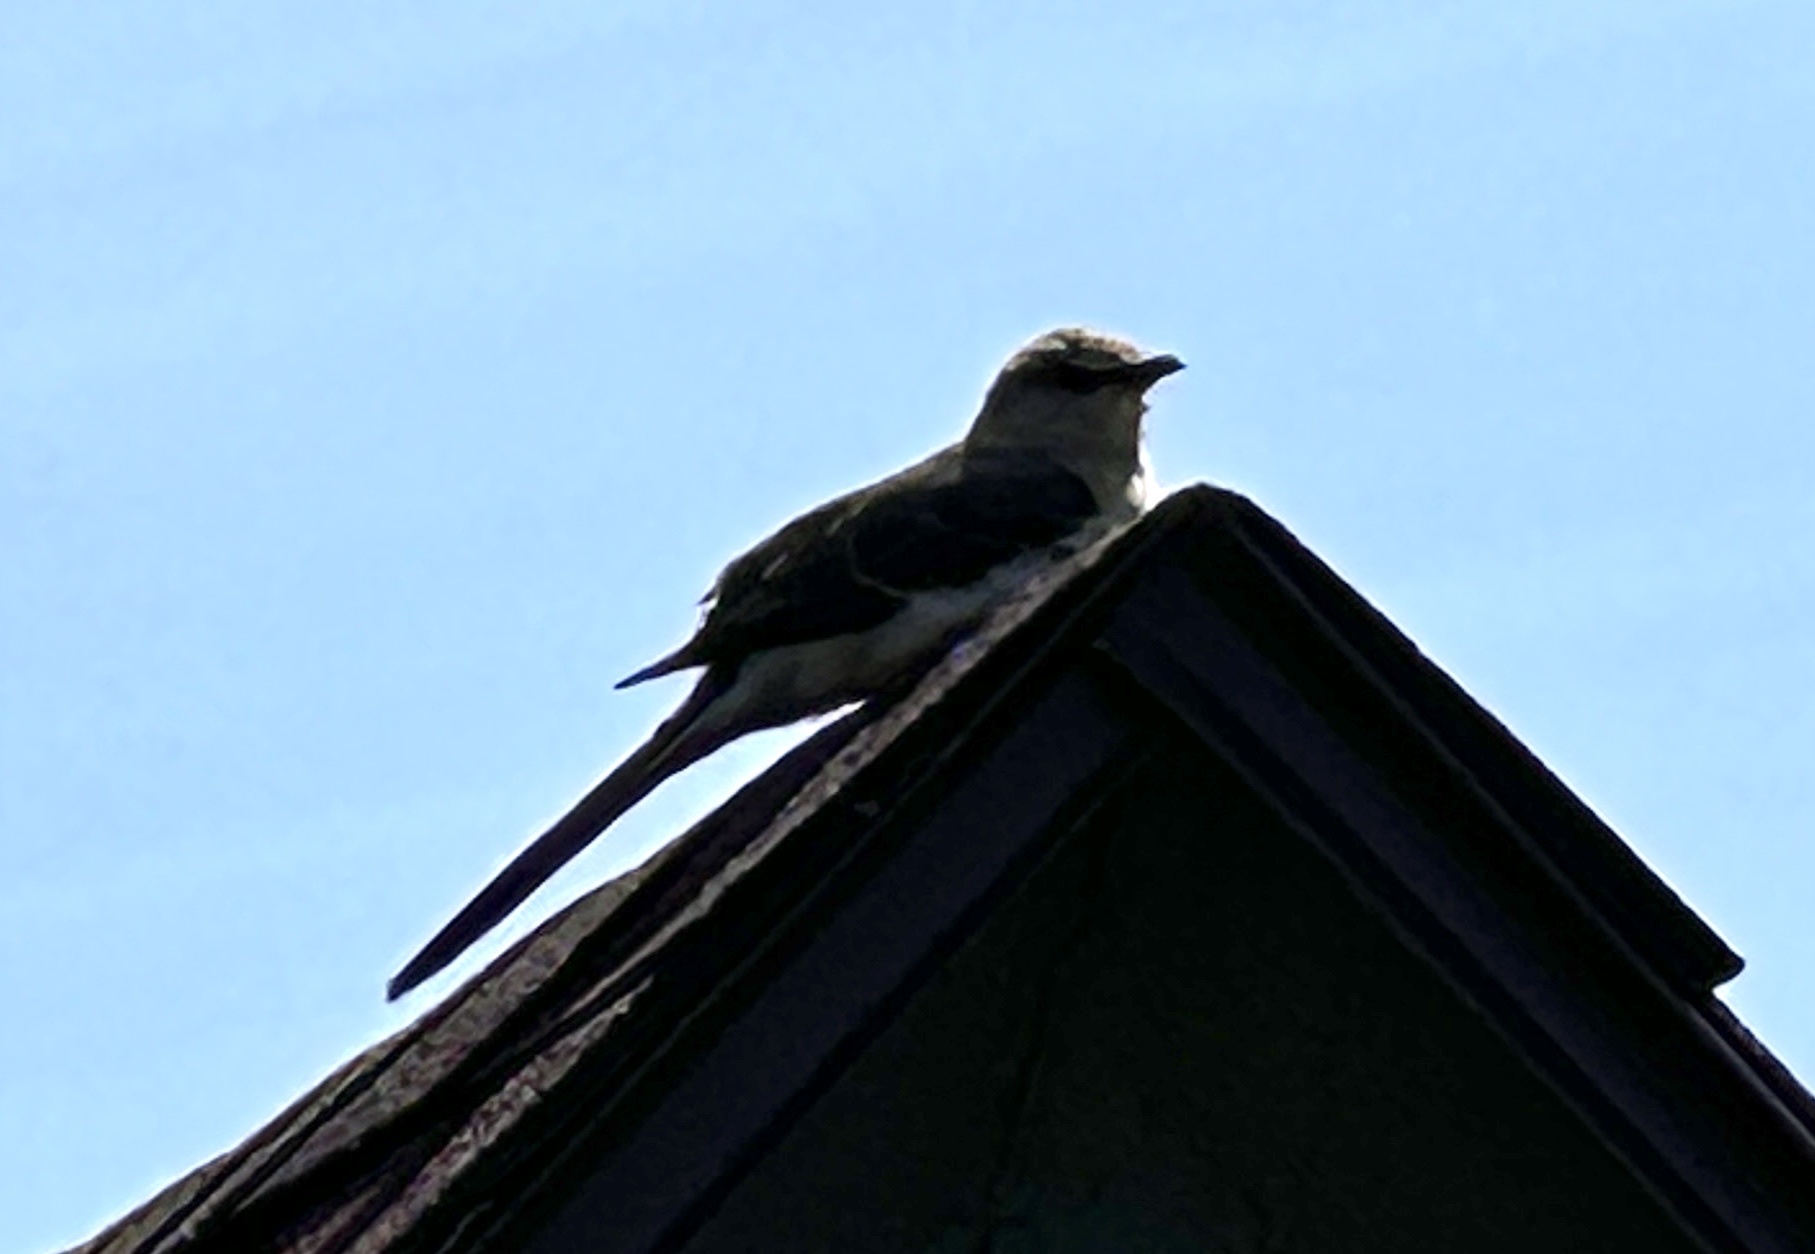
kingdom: Animalia
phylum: Chordata
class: Aves
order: Passeriformes
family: Mimidae
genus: Mimus
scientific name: Mimus polyglottos
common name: Northern mockingbird
